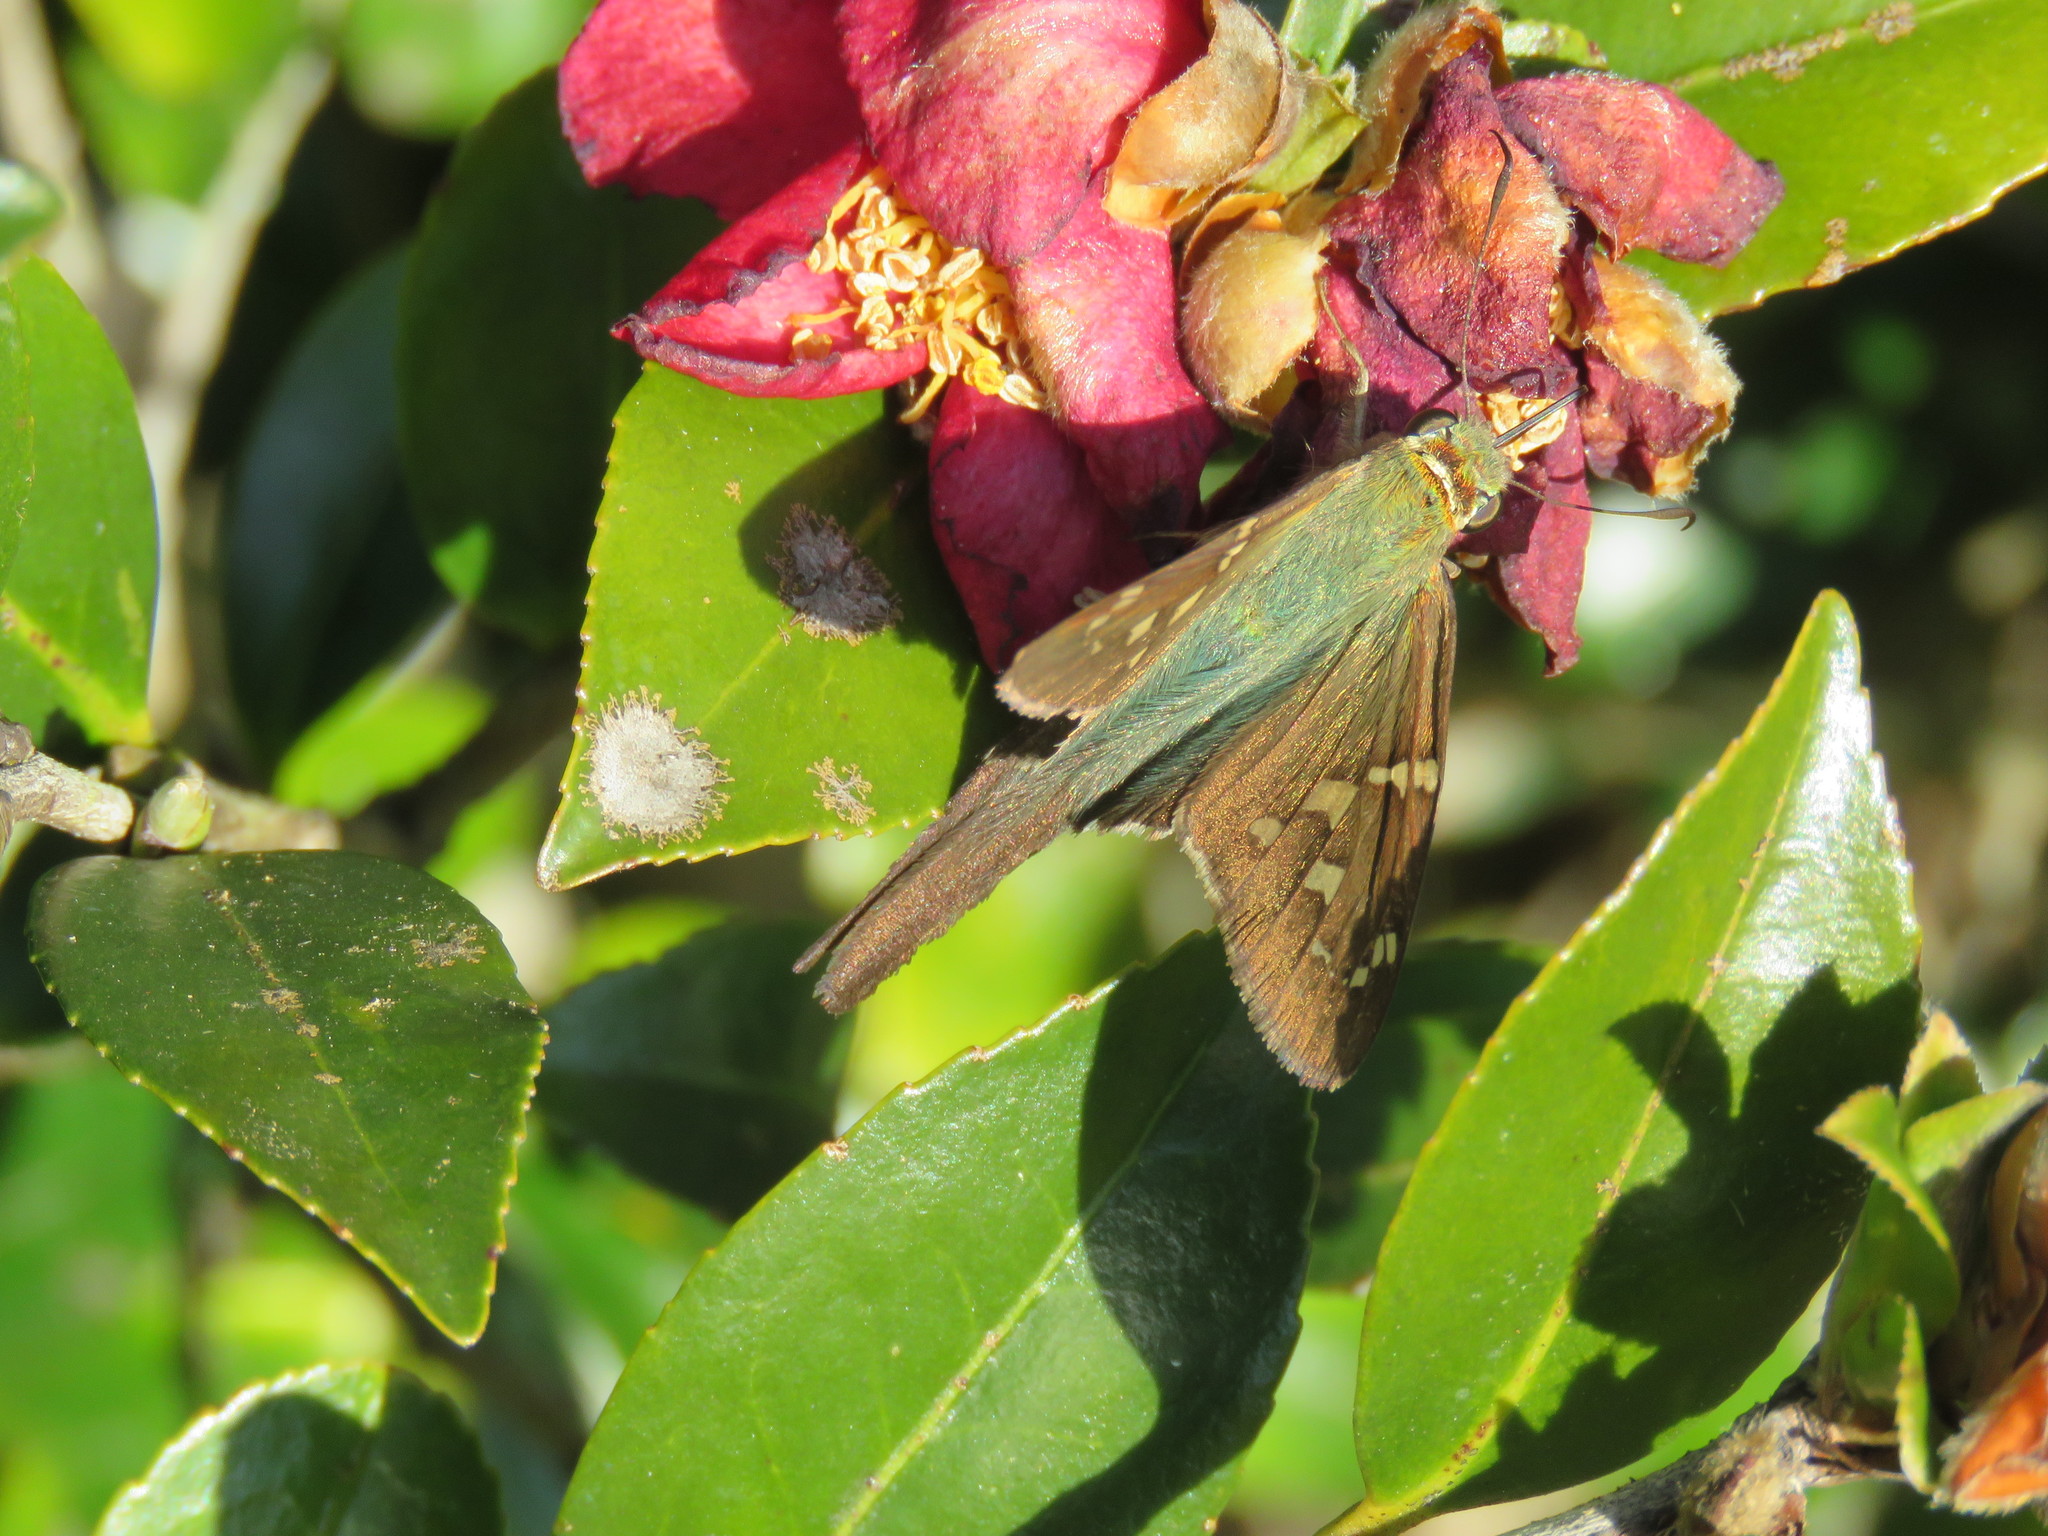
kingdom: Animalia
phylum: Arthropoda
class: Insecta
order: Lepidoptera
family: Hesperiidae
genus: Urbanus
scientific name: Urbanus proteus
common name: Long-tailed skipper
